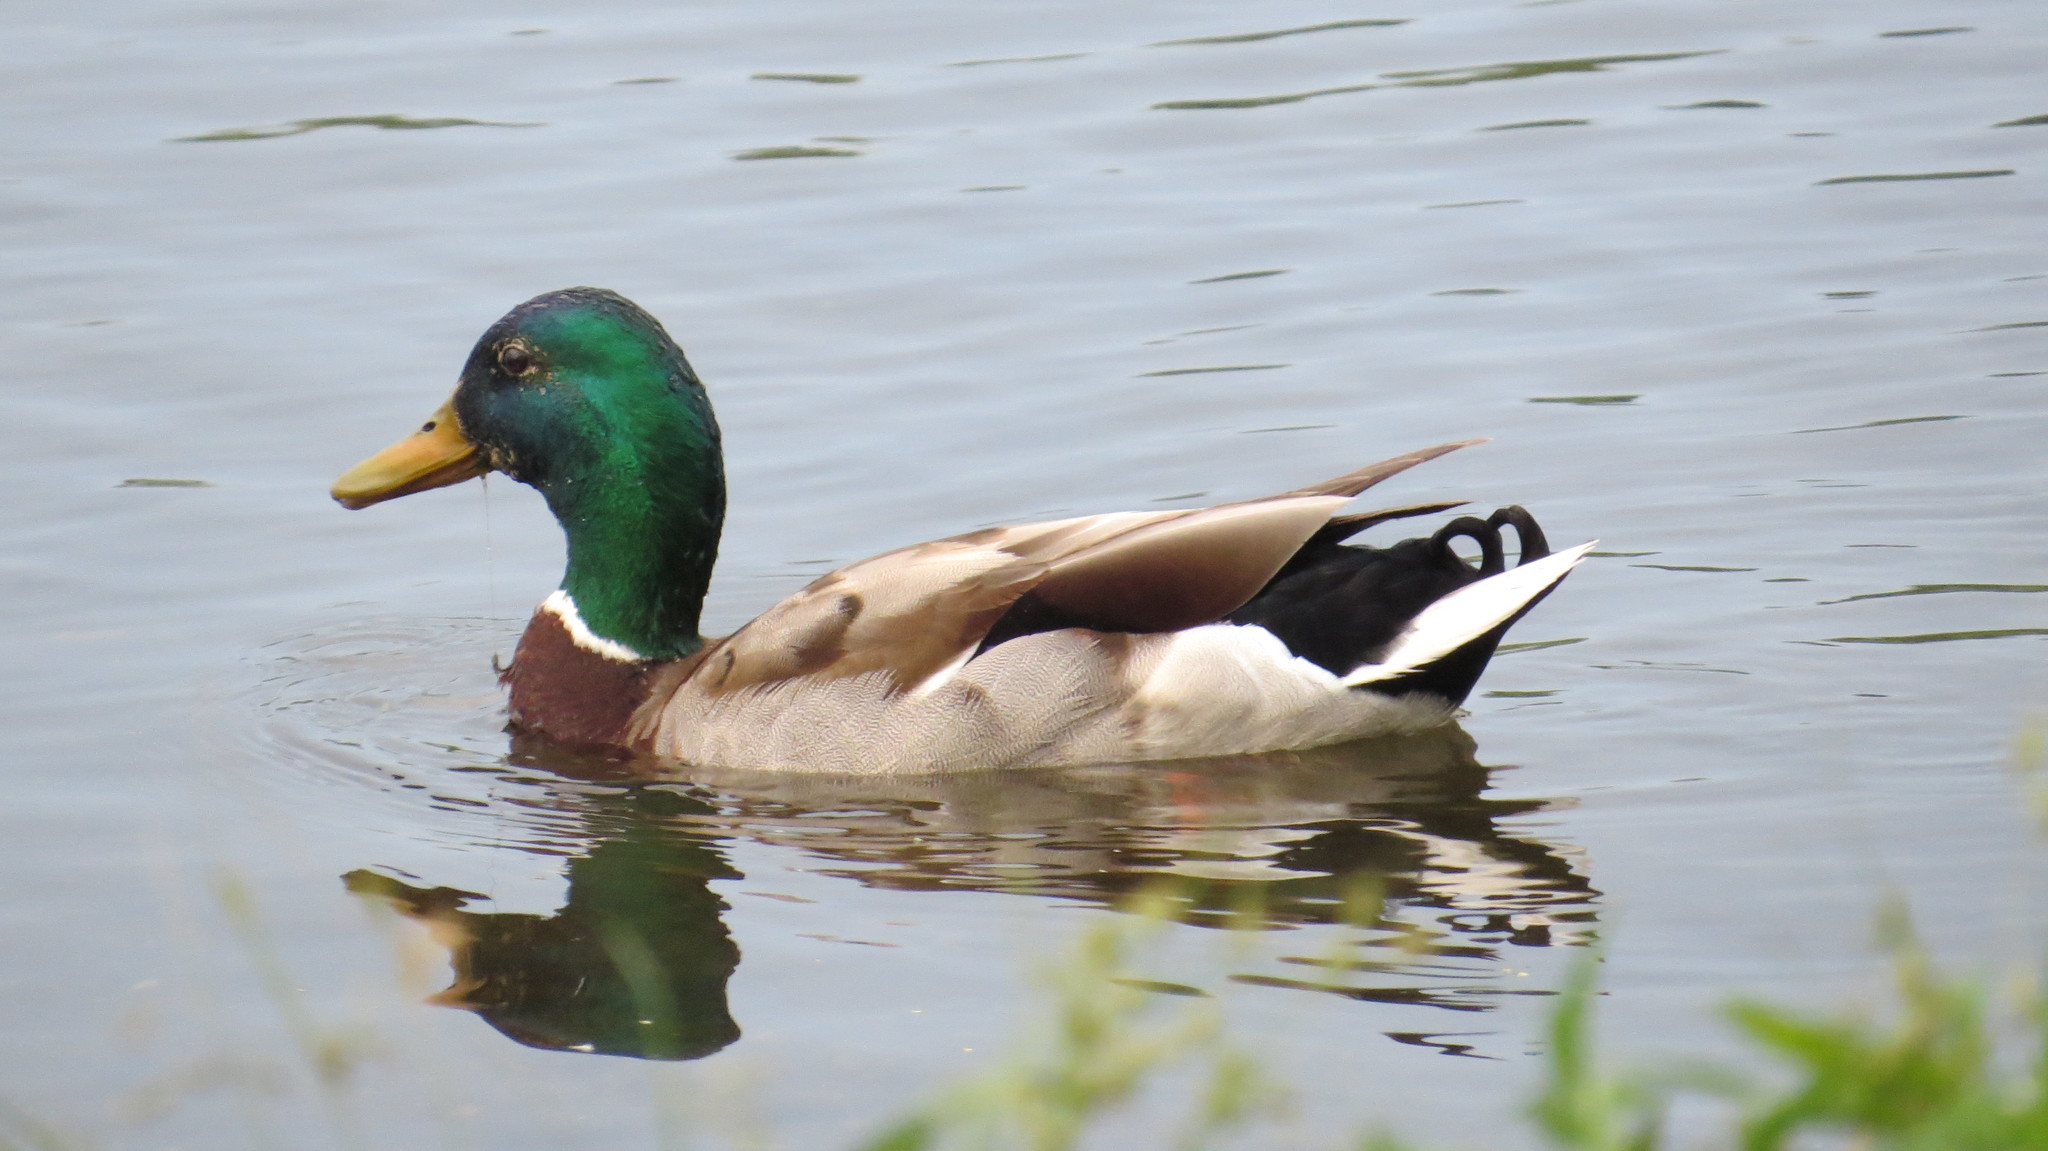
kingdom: Animalia
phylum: Chordata
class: Aves
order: Anseriformes
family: Anatidae
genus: Anas
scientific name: Anas platyrhynchos
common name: Mallard
